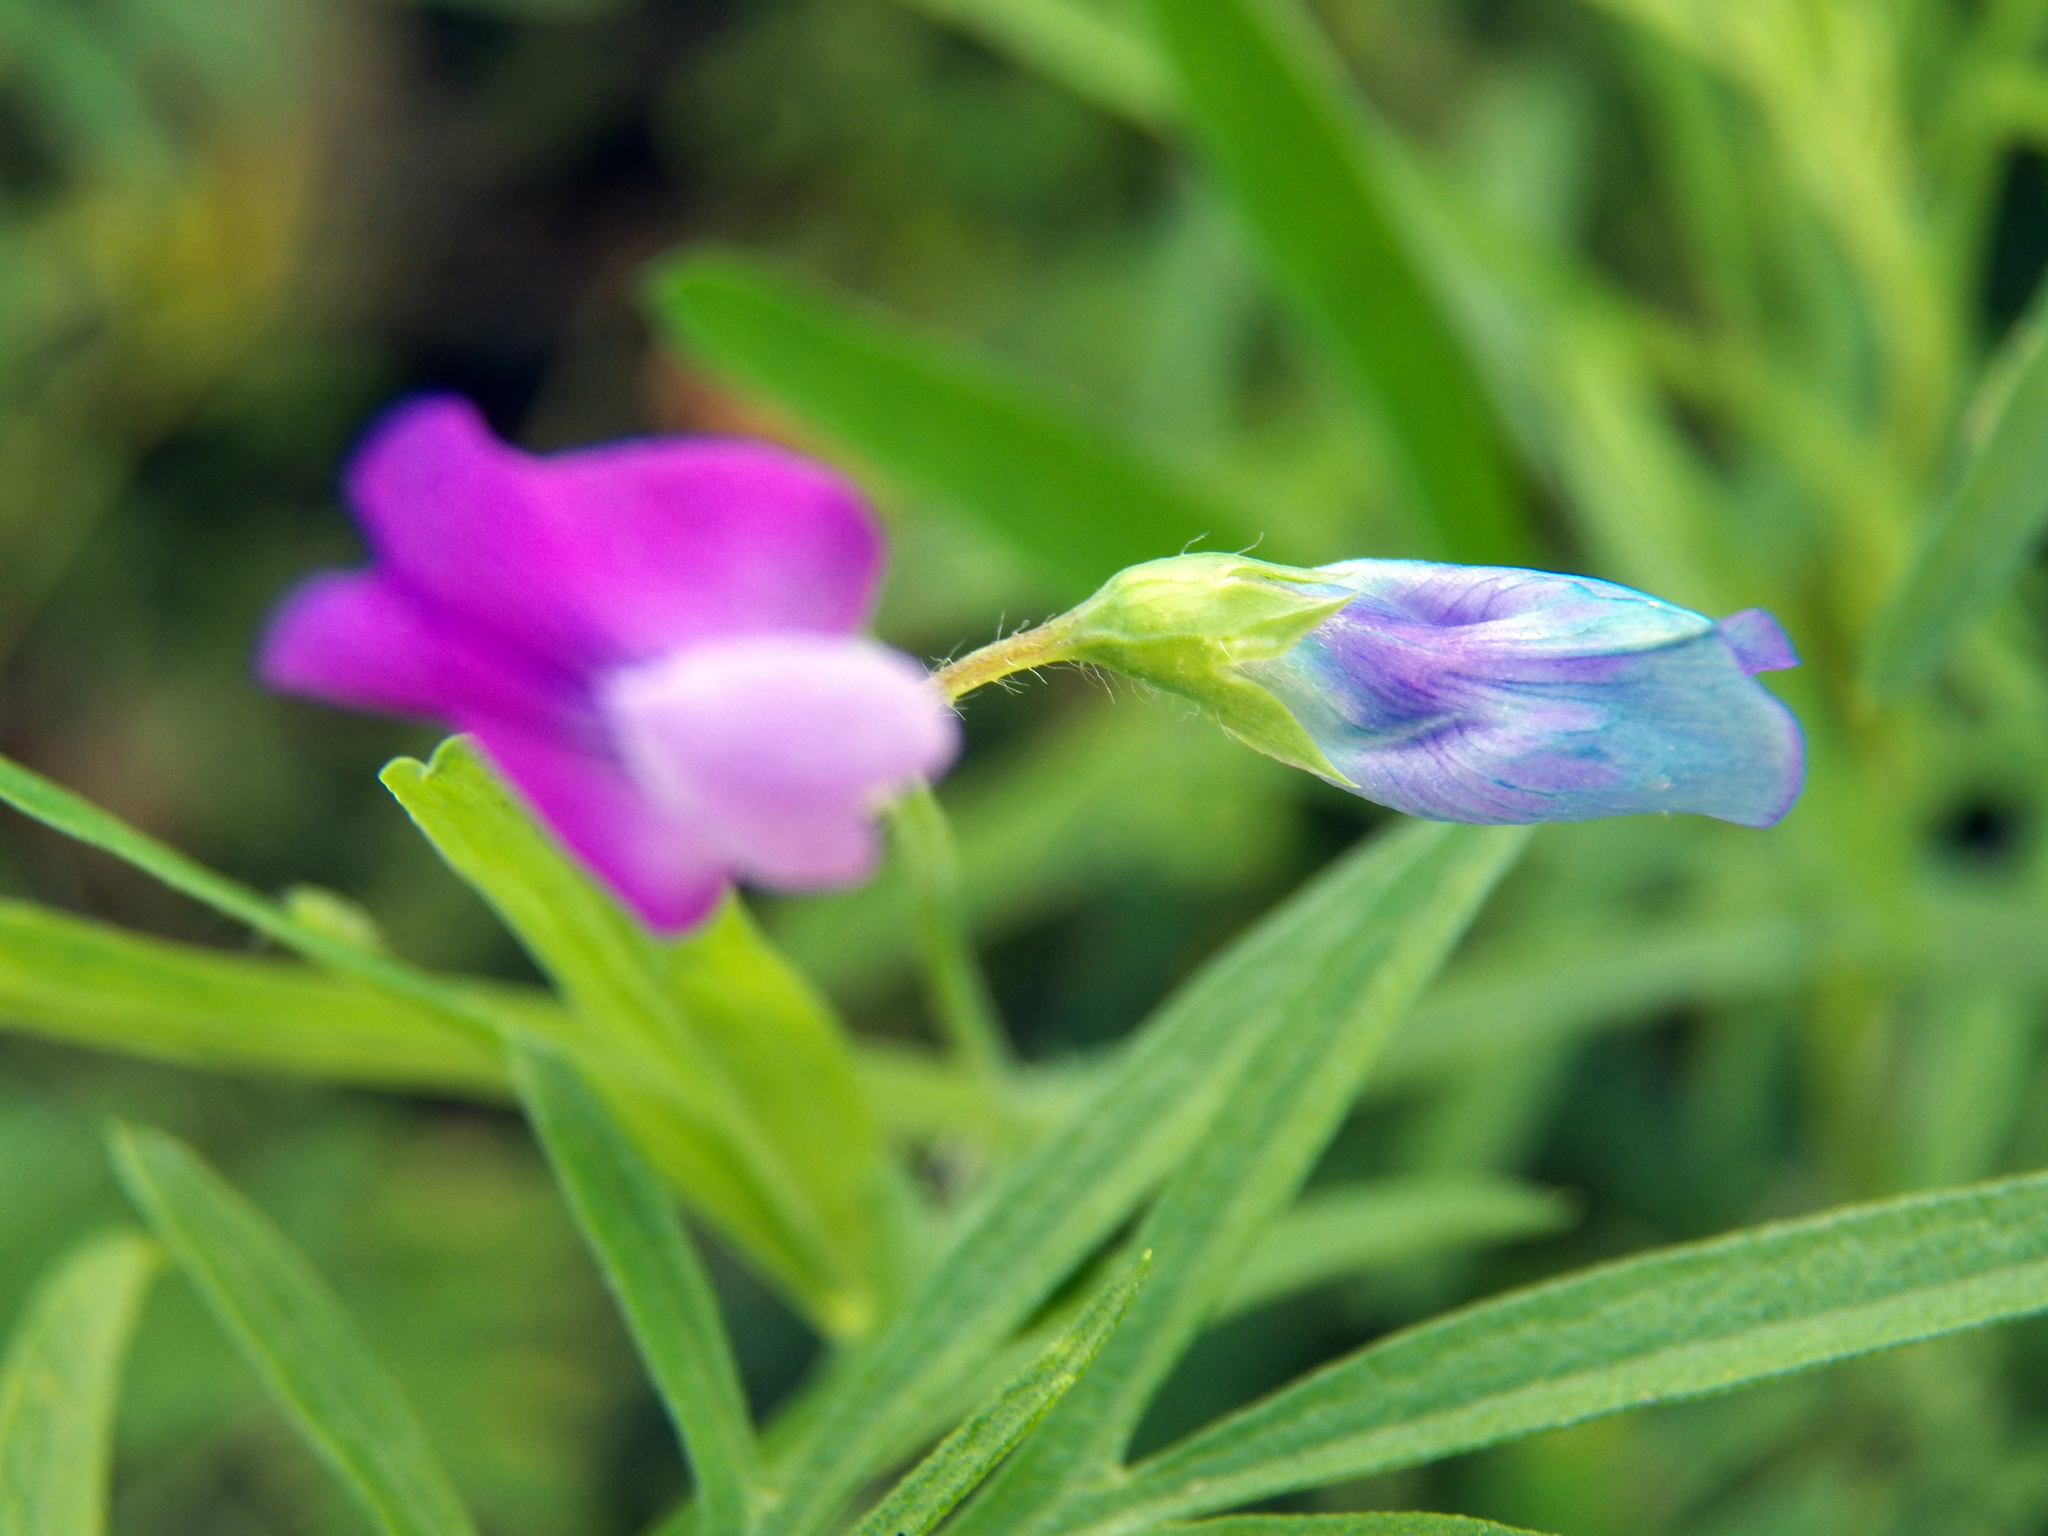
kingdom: Plantae
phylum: Tracheophyta
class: Magnoliopsida
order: Fabales
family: Fabaceae
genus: Vicia
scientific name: Vicia sativa
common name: Garden vetch
